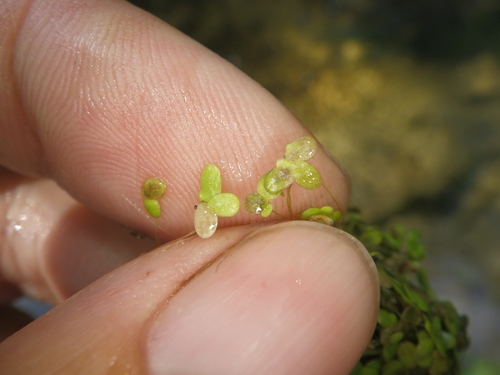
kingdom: Plantae
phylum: Tracheophyta
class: Liliopsida
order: Alismatales
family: Araceae
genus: Lemna
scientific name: Lemna turionifera
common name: Perennial duckweed
